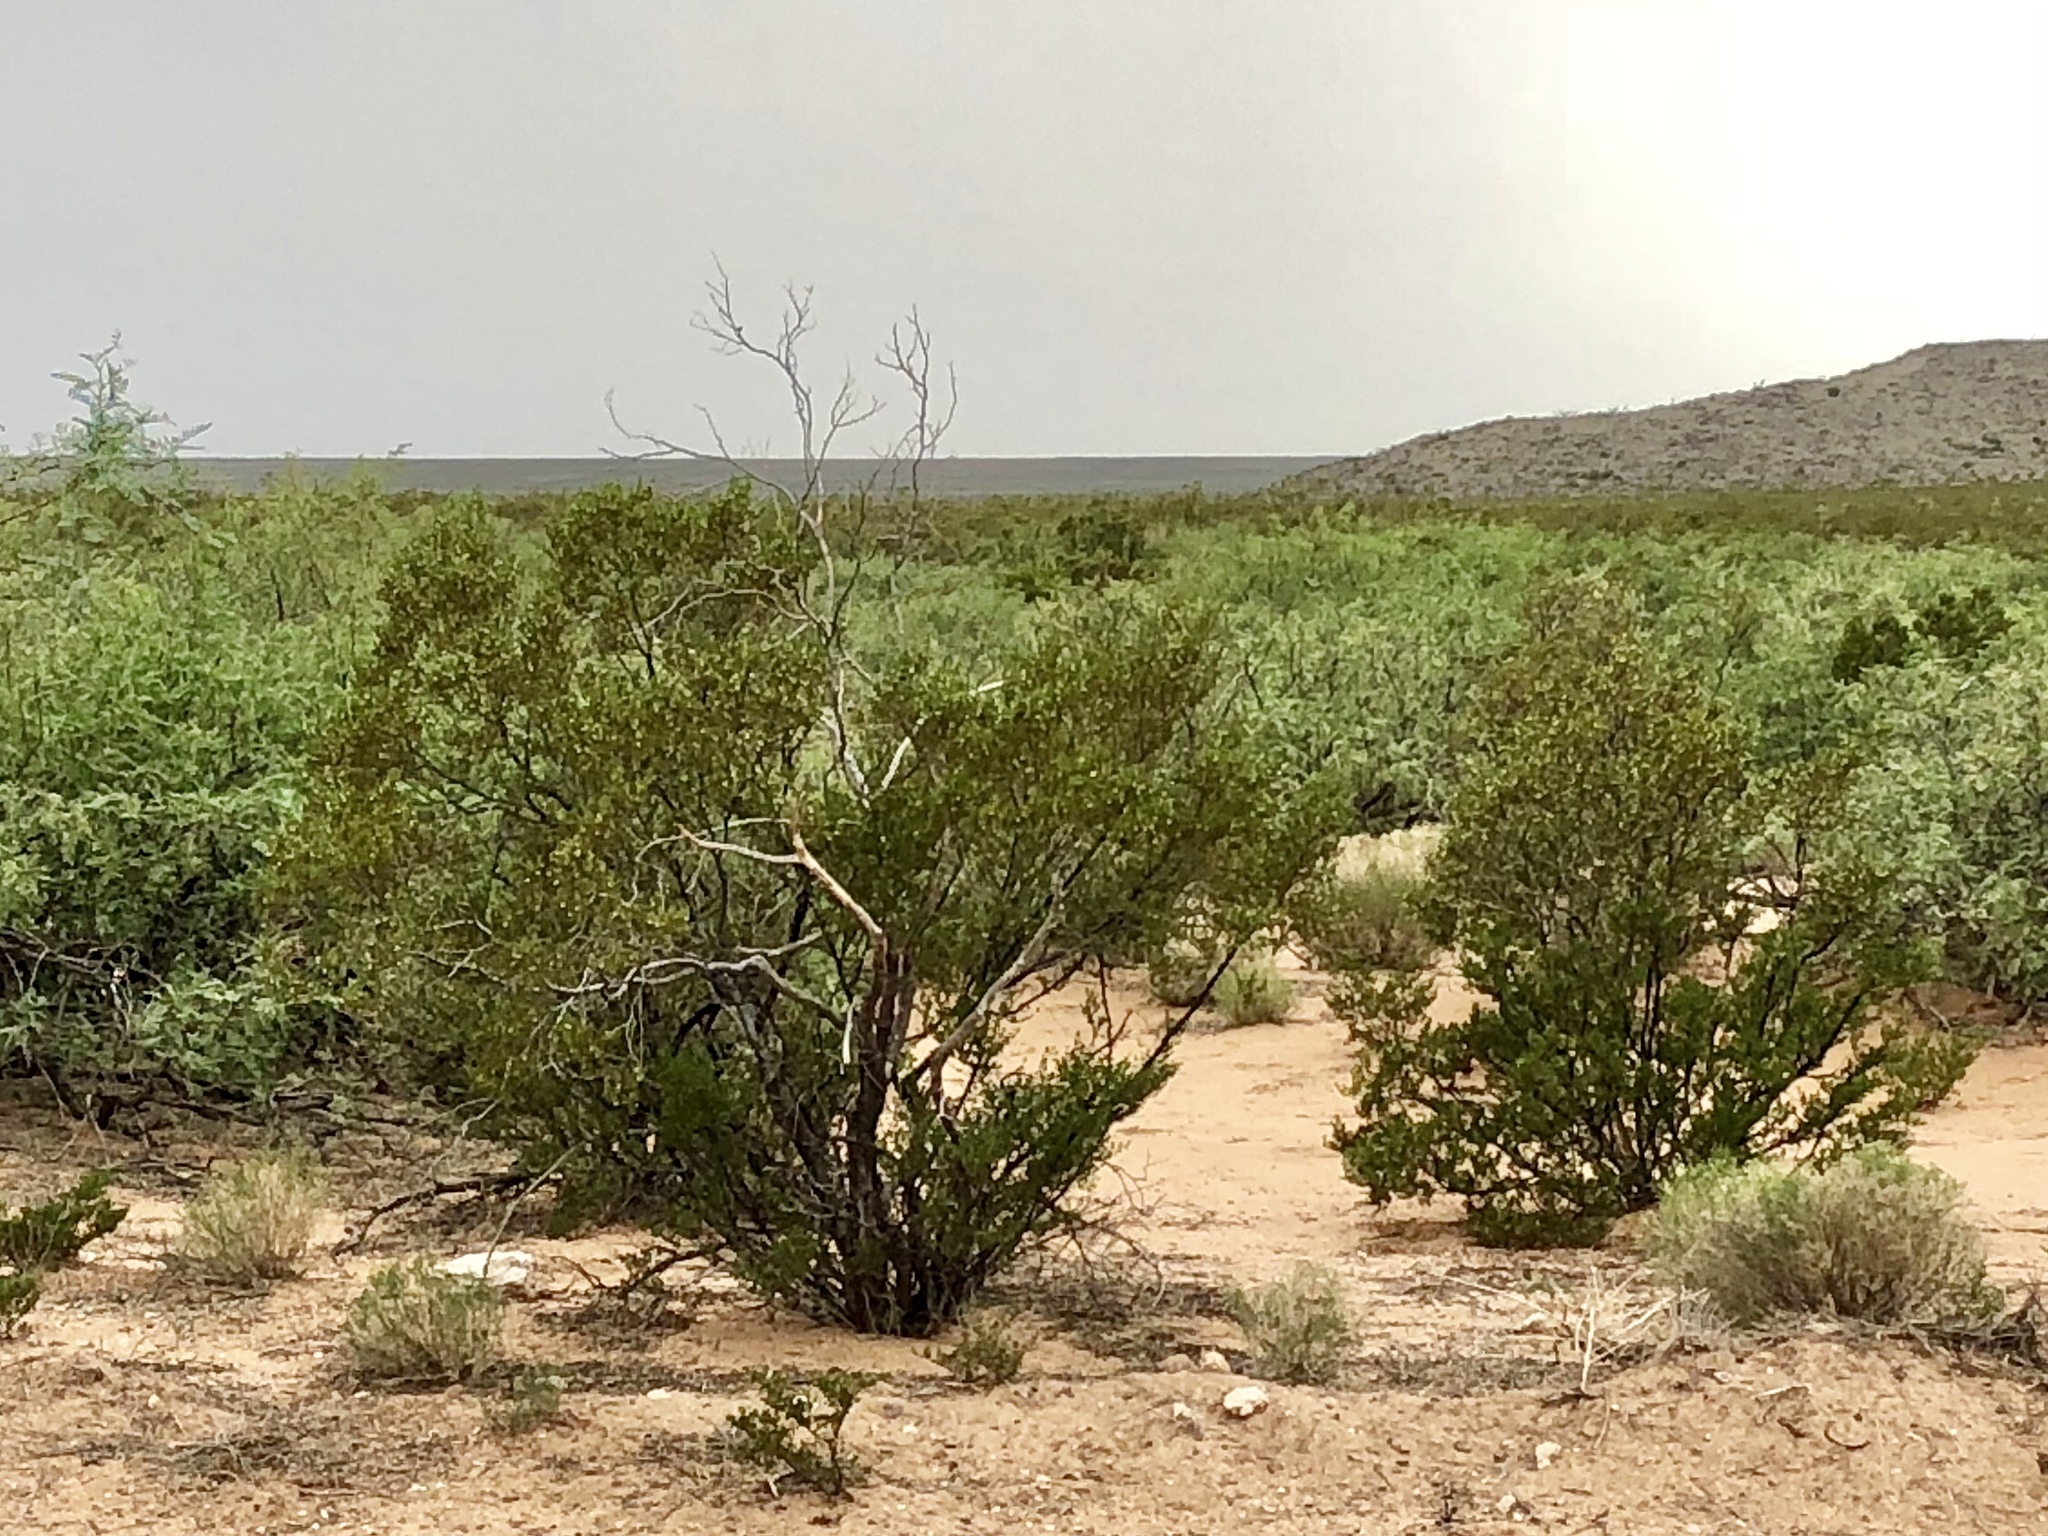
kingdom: Plantae
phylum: Tracheophyta
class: Magnoliopsida
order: Zygophyllales
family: Zygophyllaceae
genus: Larrea
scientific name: Larrea tridentata
